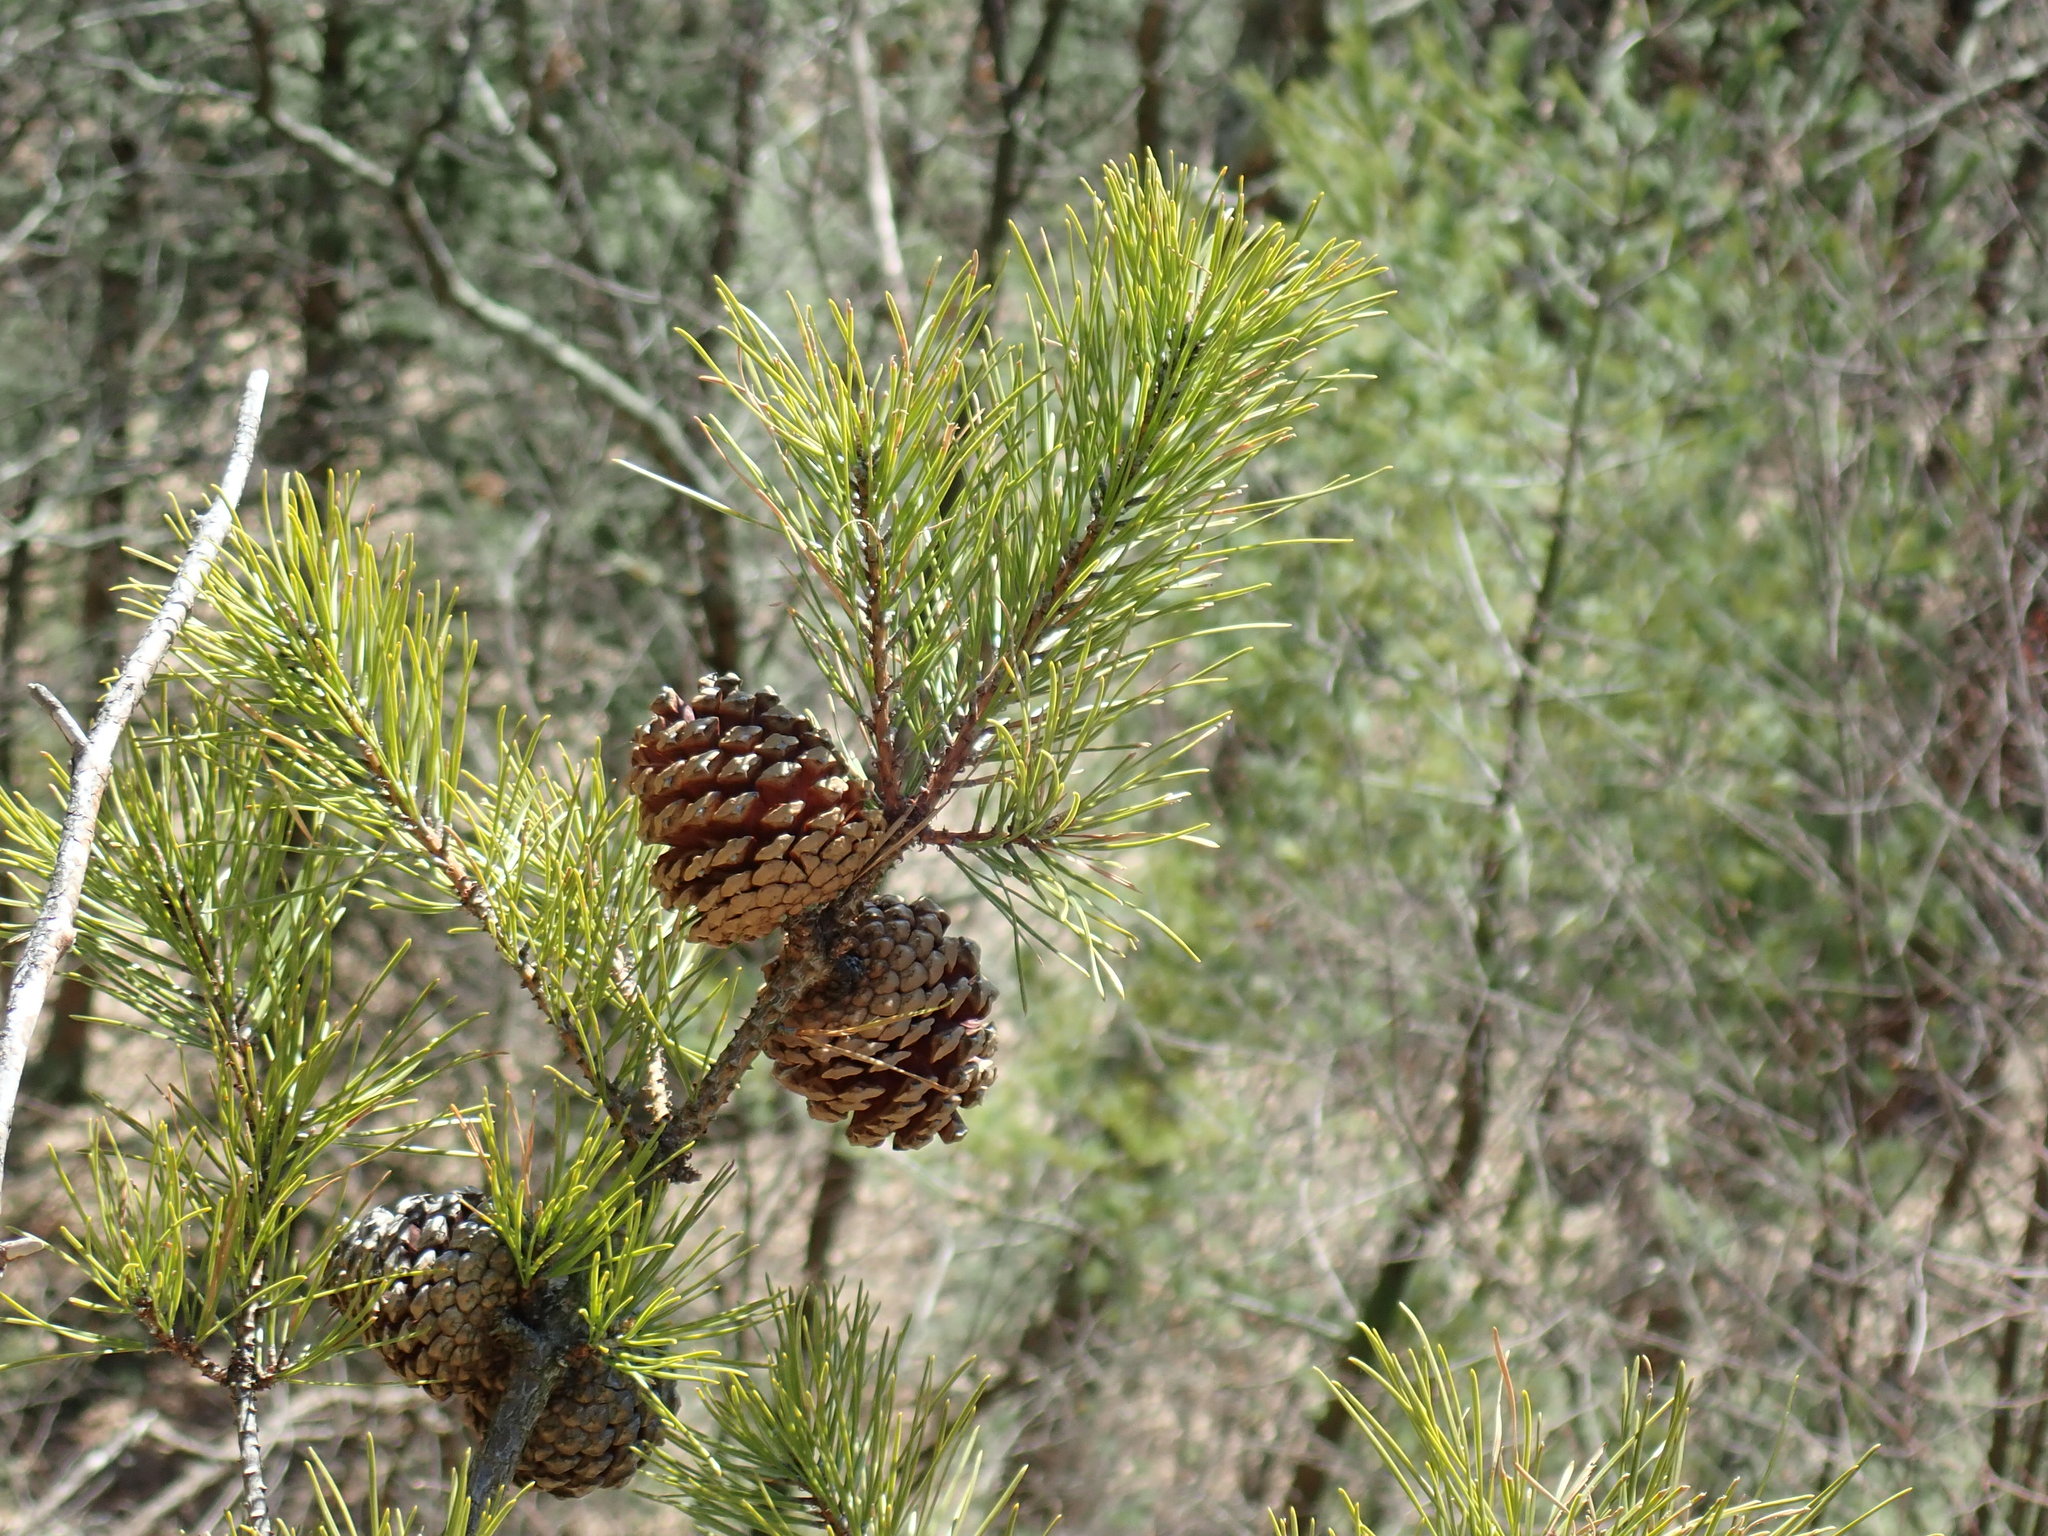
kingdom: Plantae
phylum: Tracheophyta
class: Pinopsida
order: Pinales
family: Pinaceae
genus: Pinus
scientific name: Pinus rigida
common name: Pitch pine
